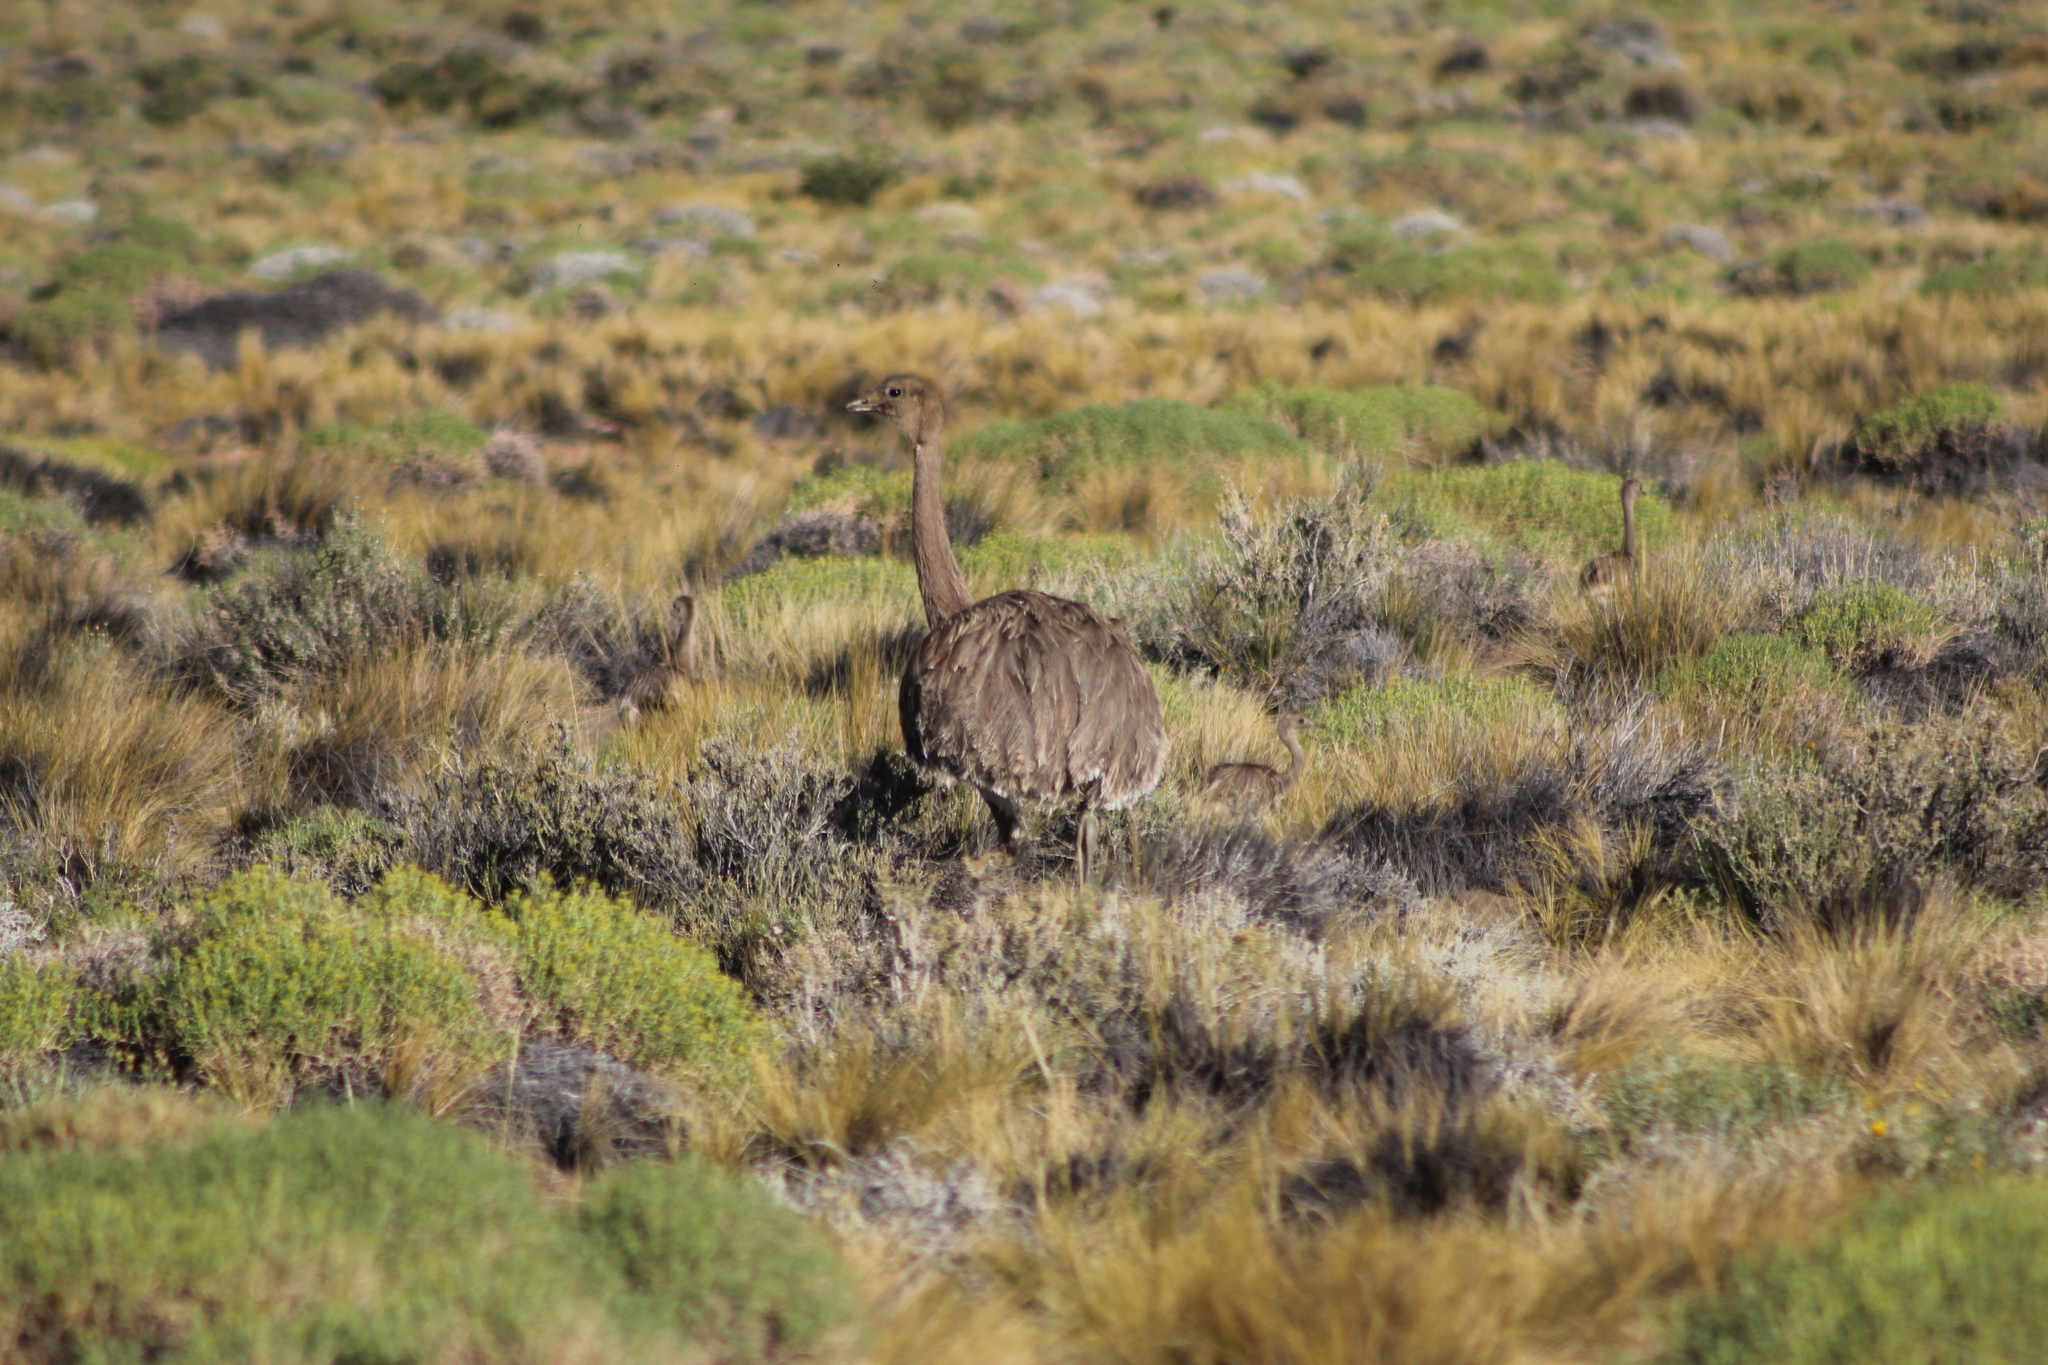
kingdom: Animalia
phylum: Chordata
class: Aves
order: Rheiformes
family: Rheidae
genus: Rhea
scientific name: Rhea pennata
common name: Lesser rhea
